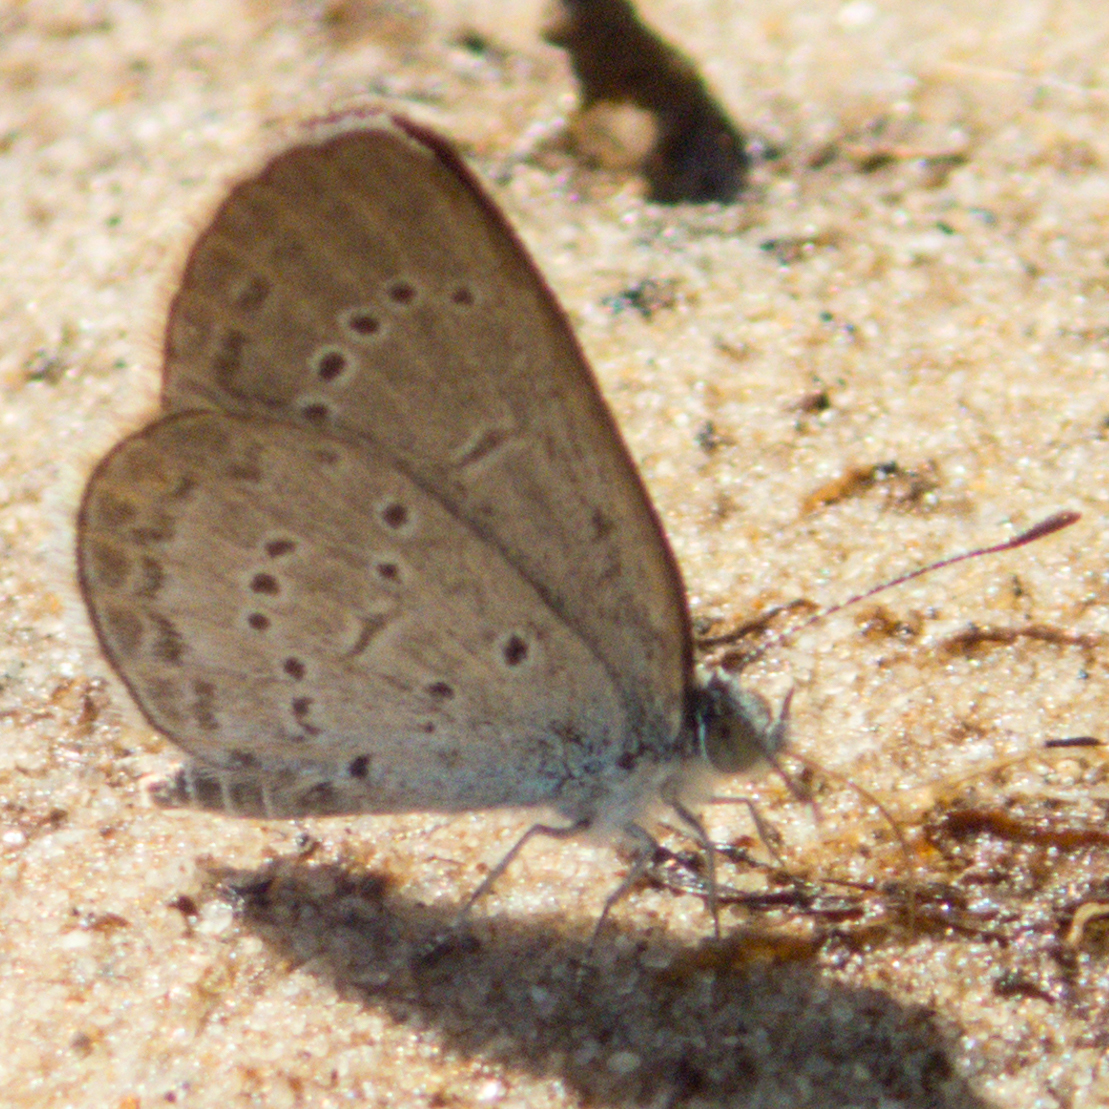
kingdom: Animalia
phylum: Arthropoda
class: Insecta
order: Lepidoptera
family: Lycaenidae
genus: Zizina
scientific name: Zizina otis
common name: Lesser grass blue
